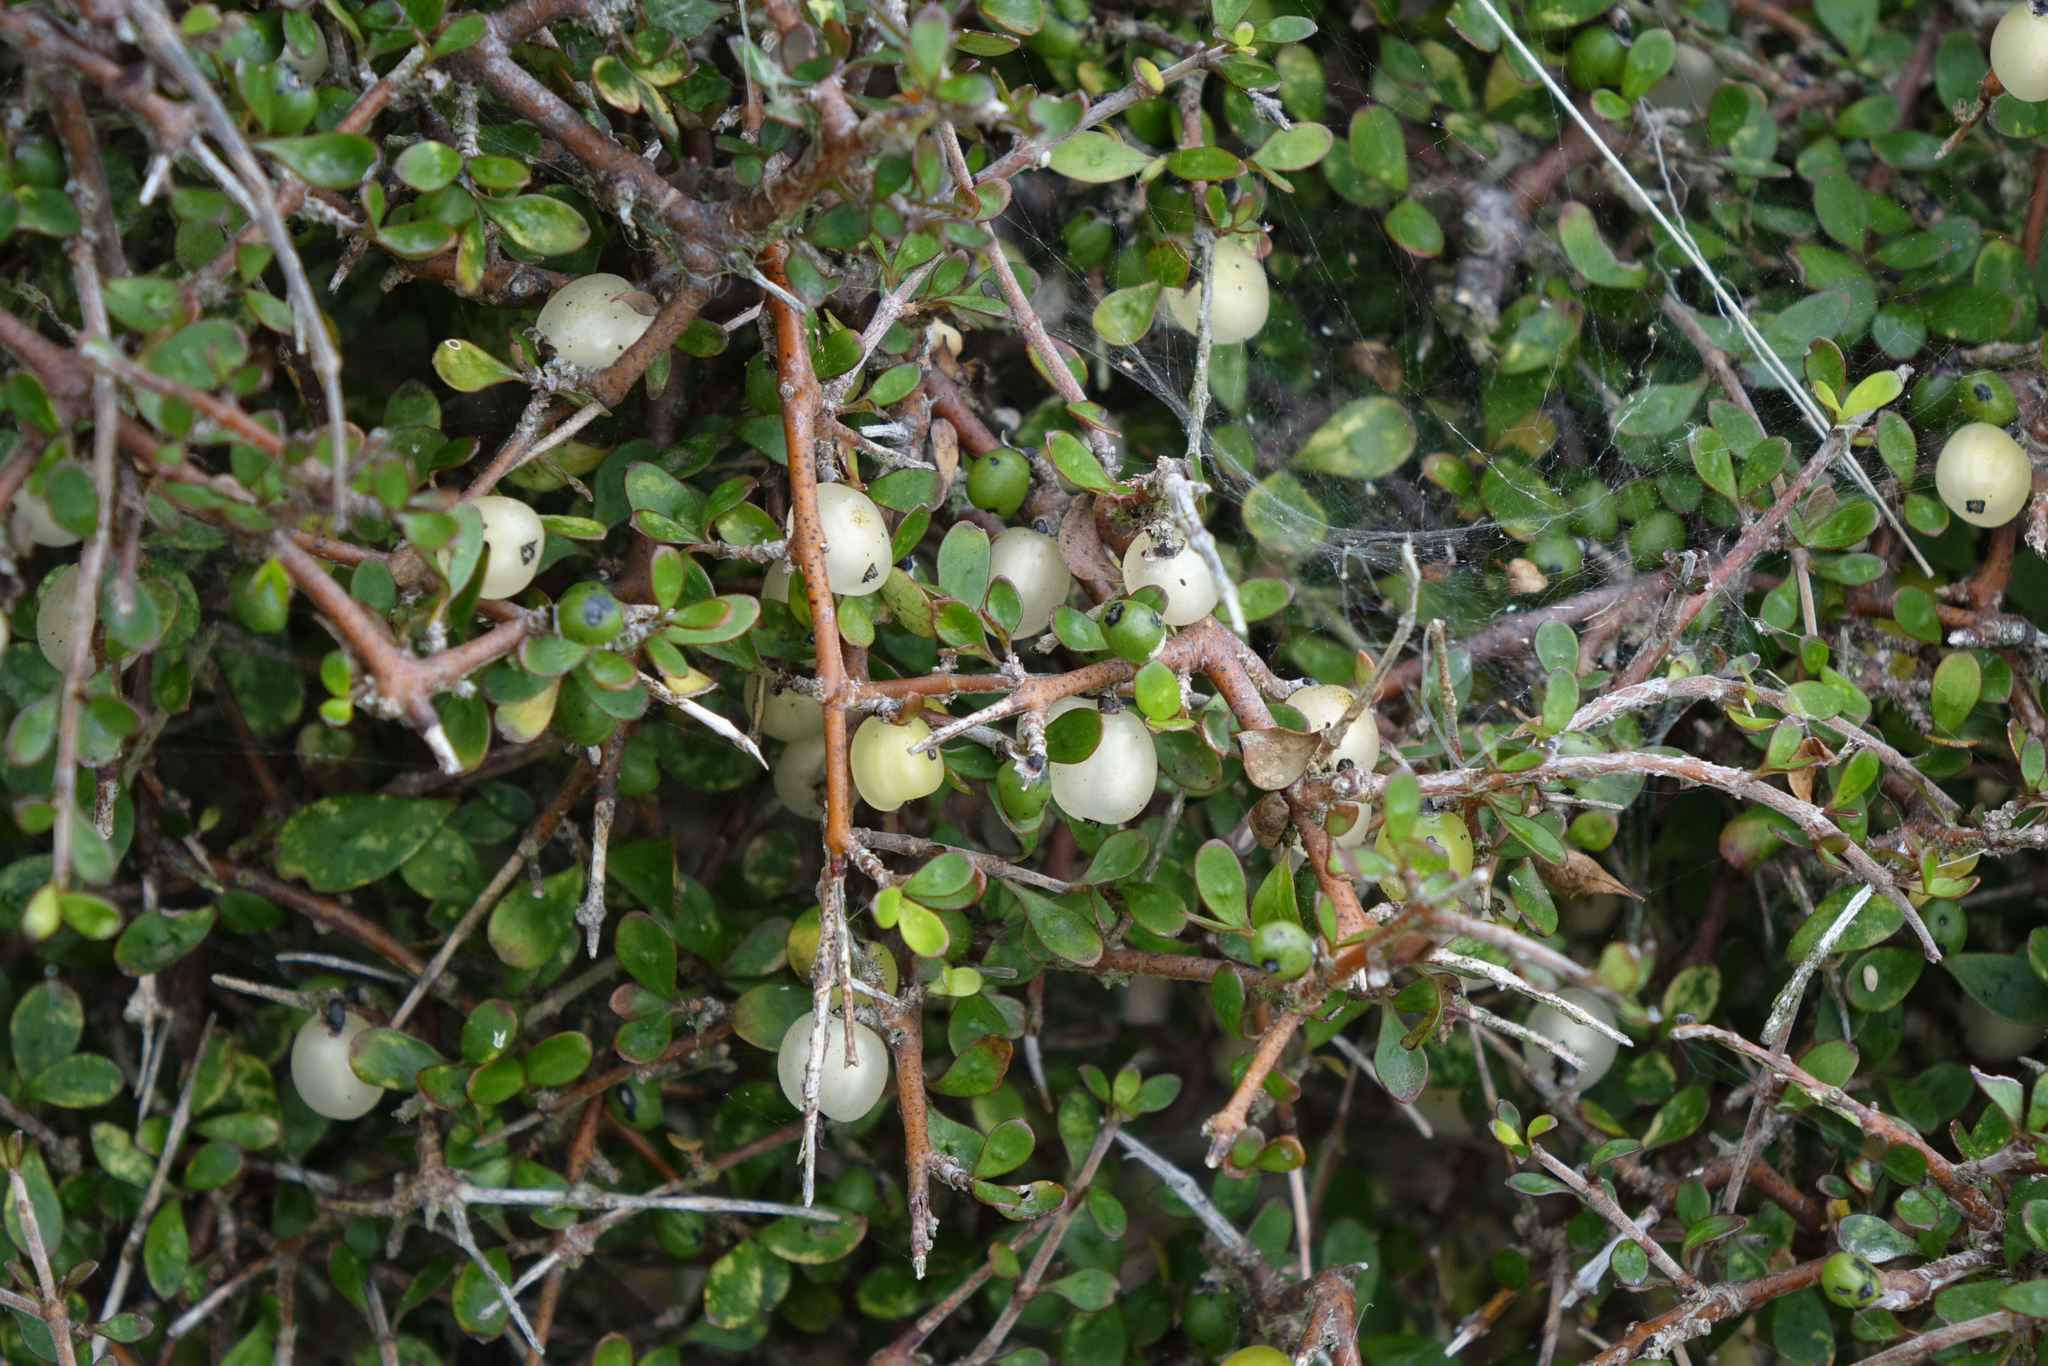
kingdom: Plantae
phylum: Tracheophyta
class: Magnoliopsida
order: Gentianales
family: Rubiaceae
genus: Coprosma
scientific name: Coprosma rigida
